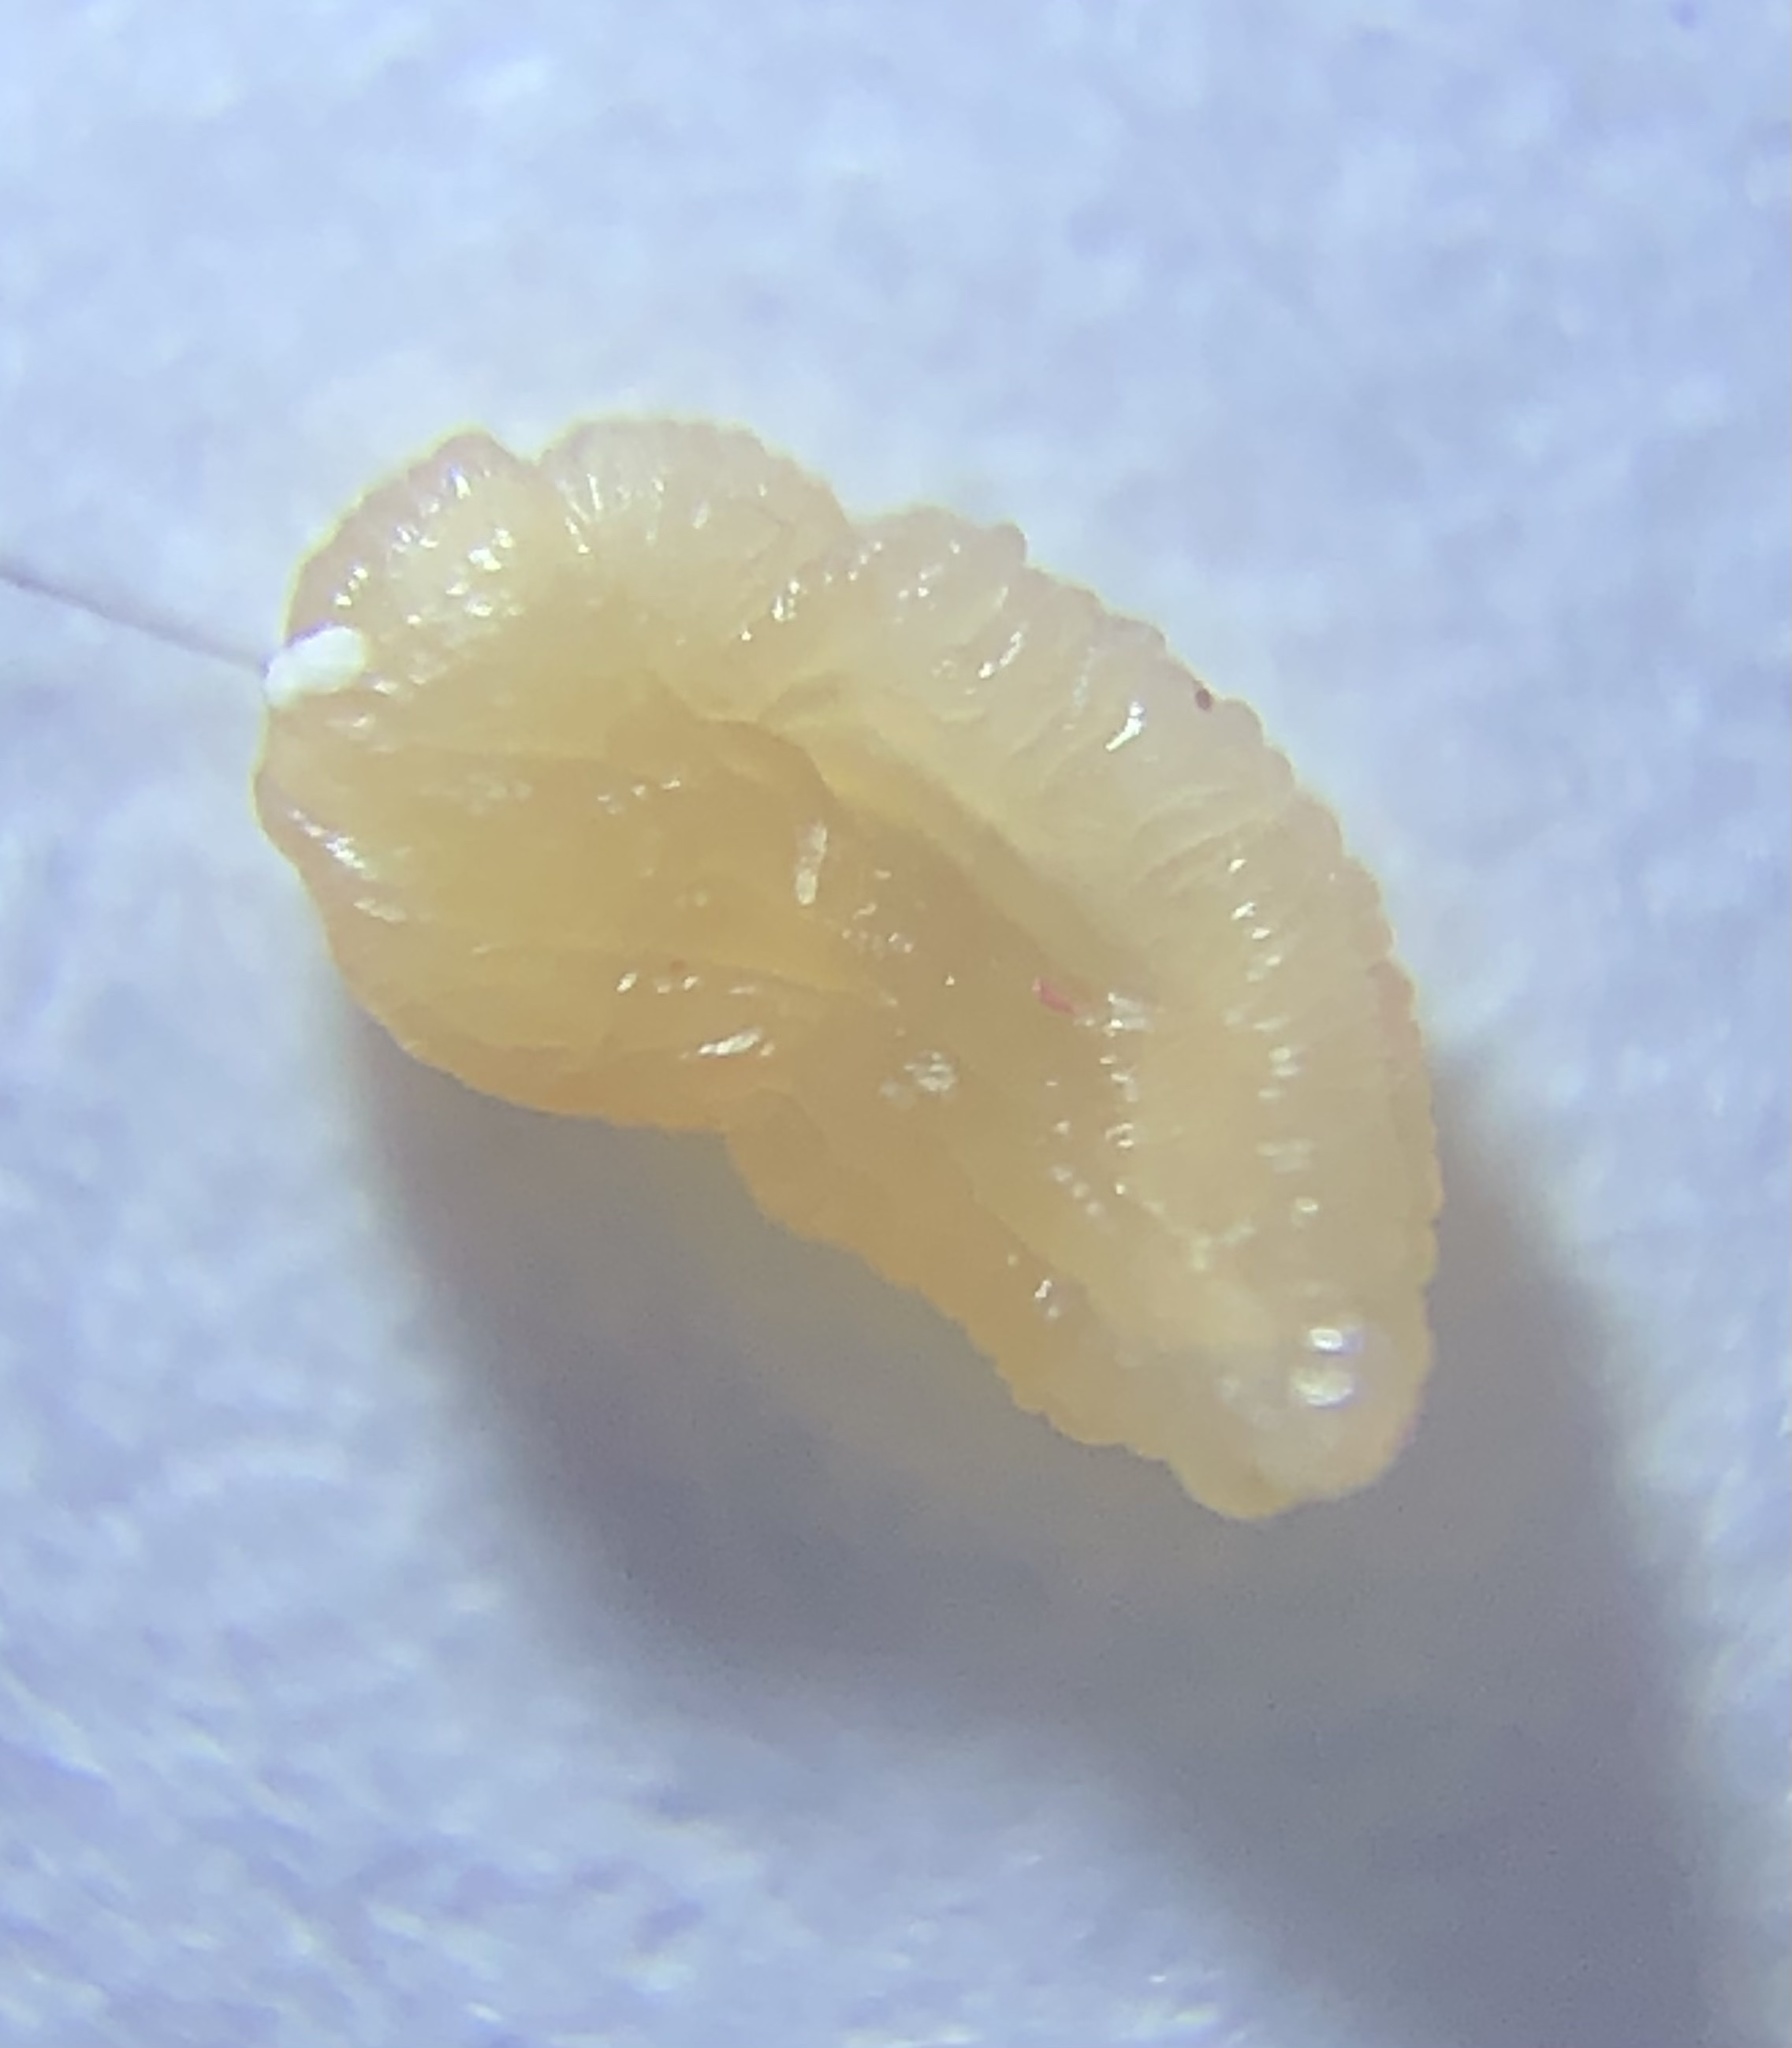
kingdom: Animalia
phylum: Platyhelminthes
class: Cestoda
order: Cyclophyllidea
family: Dipylidiidae
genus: Dipylidium
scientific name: Dipylidium caninum
